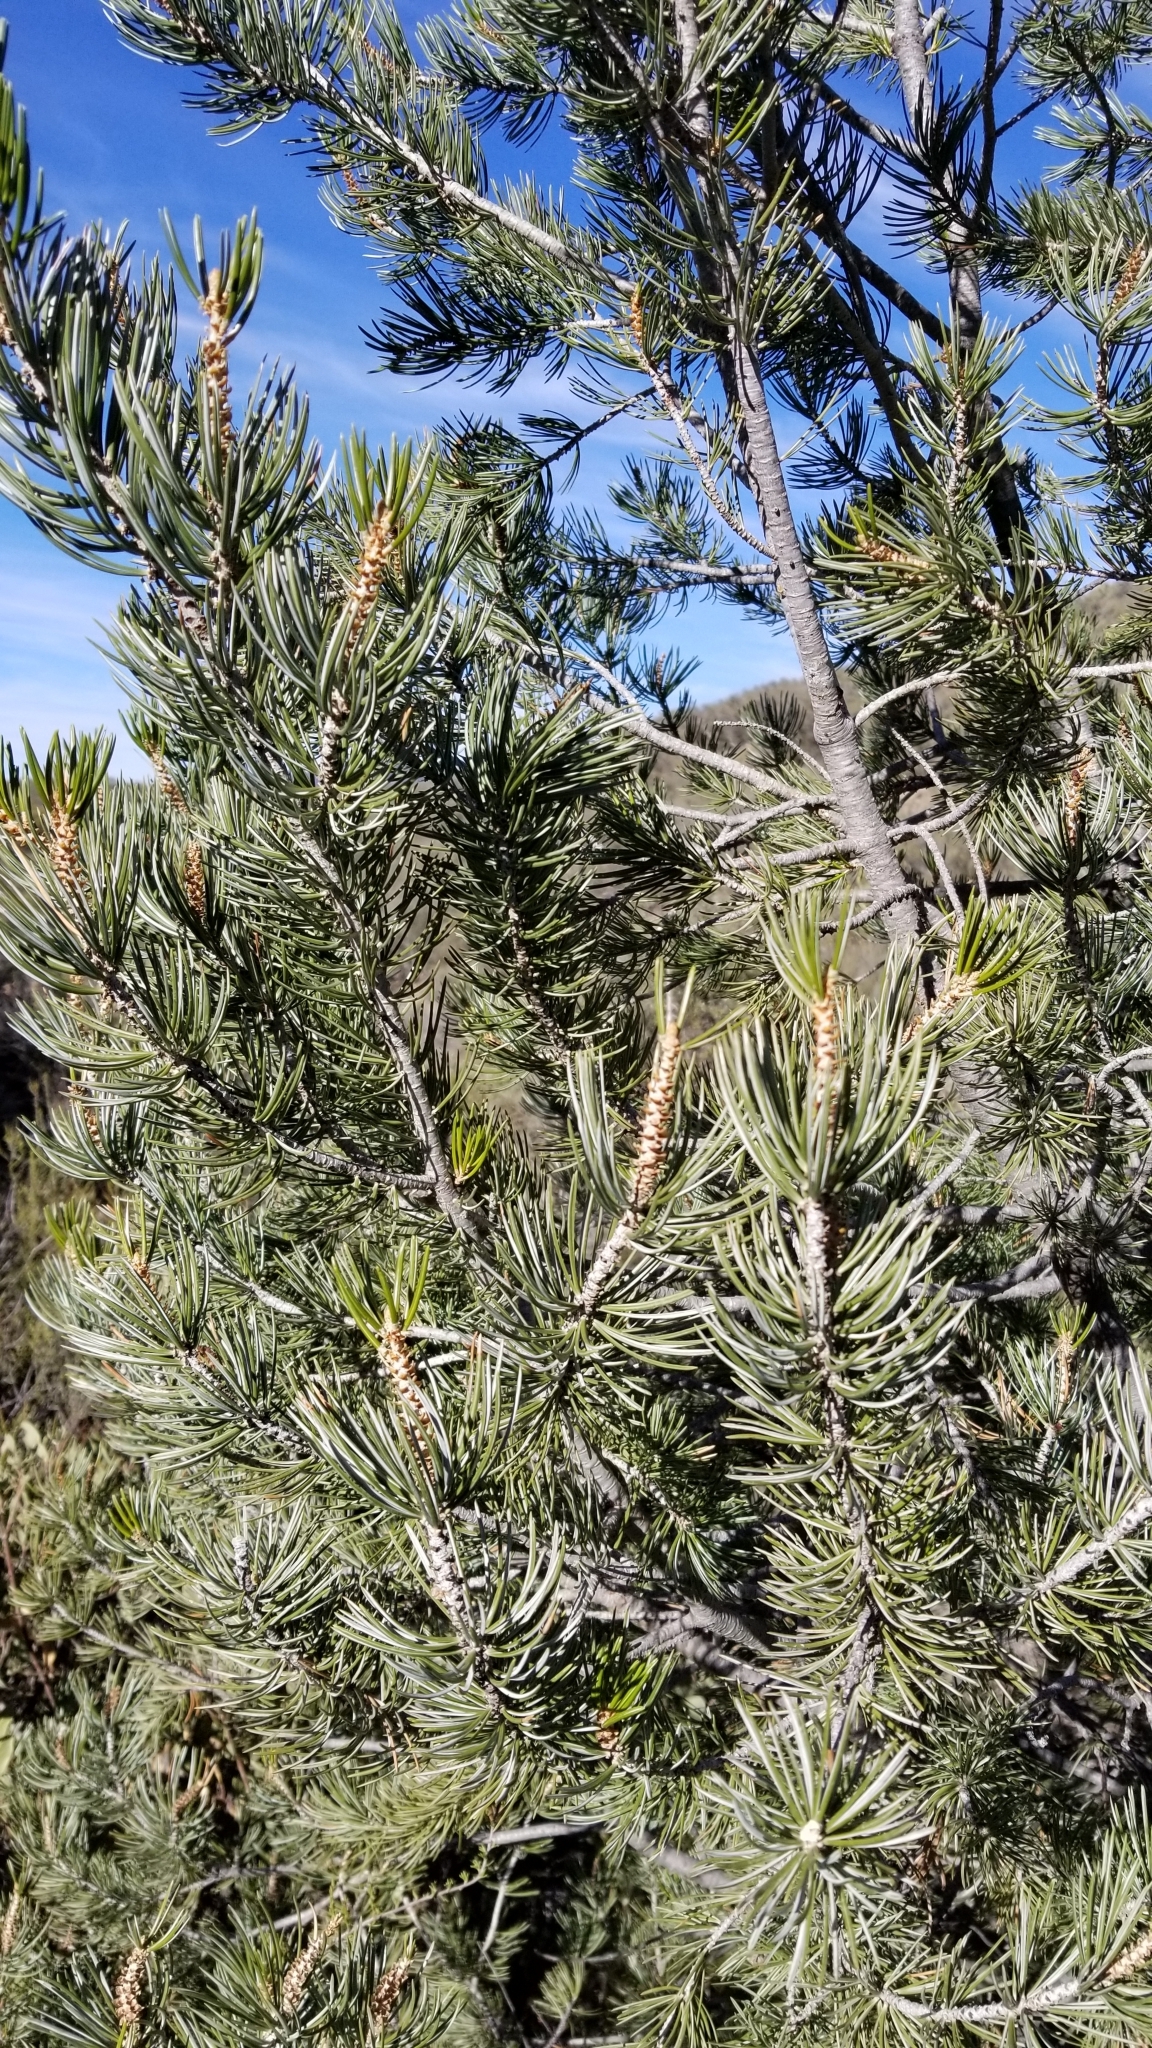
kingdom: Plantae
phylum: Tracheophyta
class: Pinopsida
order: Pinales
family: Pinaceae
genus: Pinus
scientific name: Pinus quadrifolia
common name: Parry pinyon
